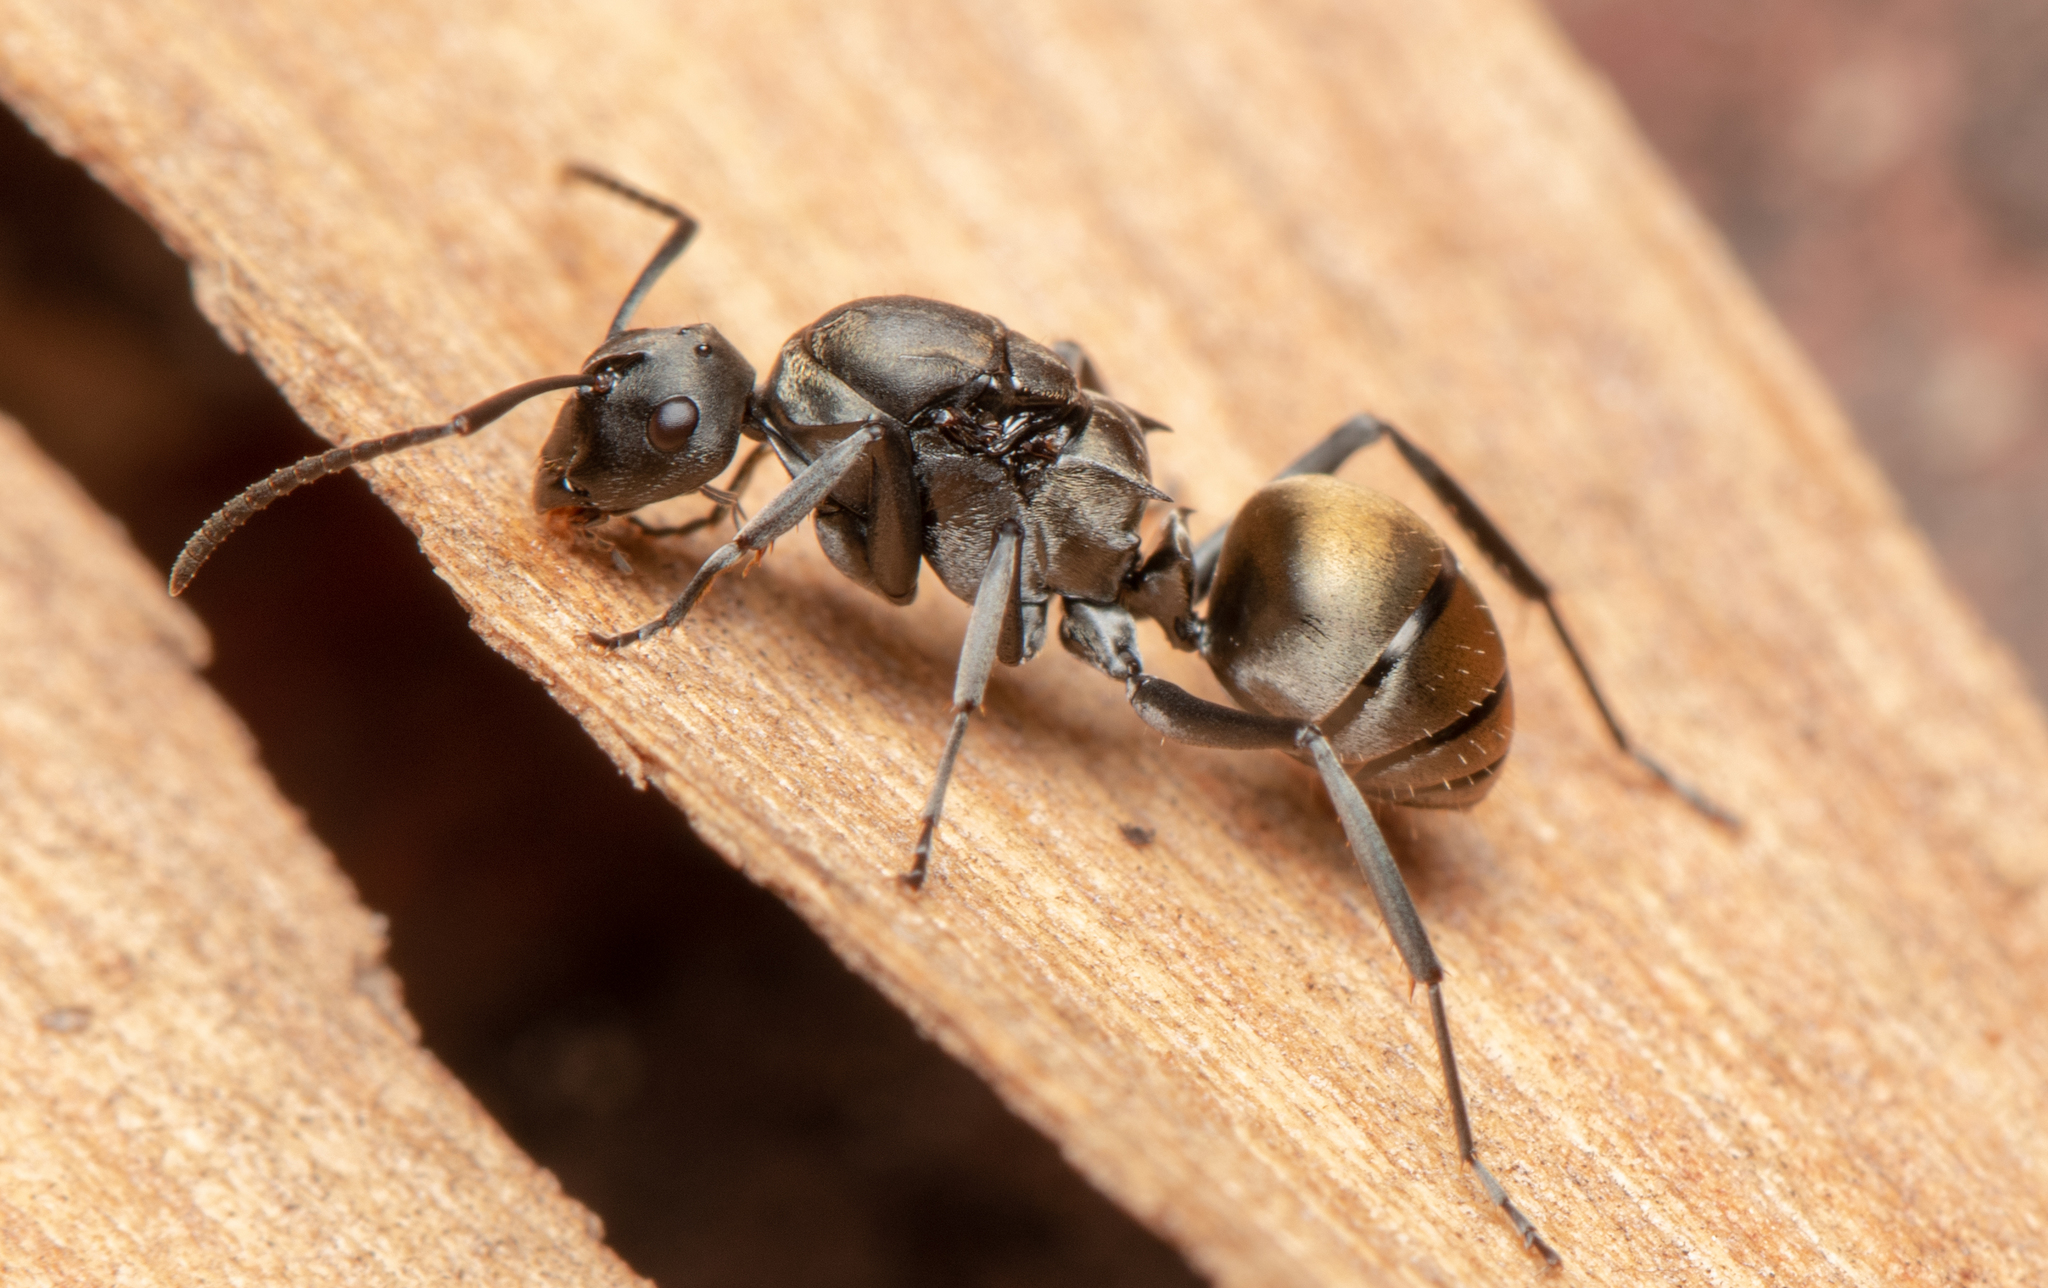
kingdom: Animalia
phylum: Arthropoda
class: Insecta
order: Hymenoptera
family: Formicidae
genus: Polyrhachis
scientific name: Polyrhachis tubifera
